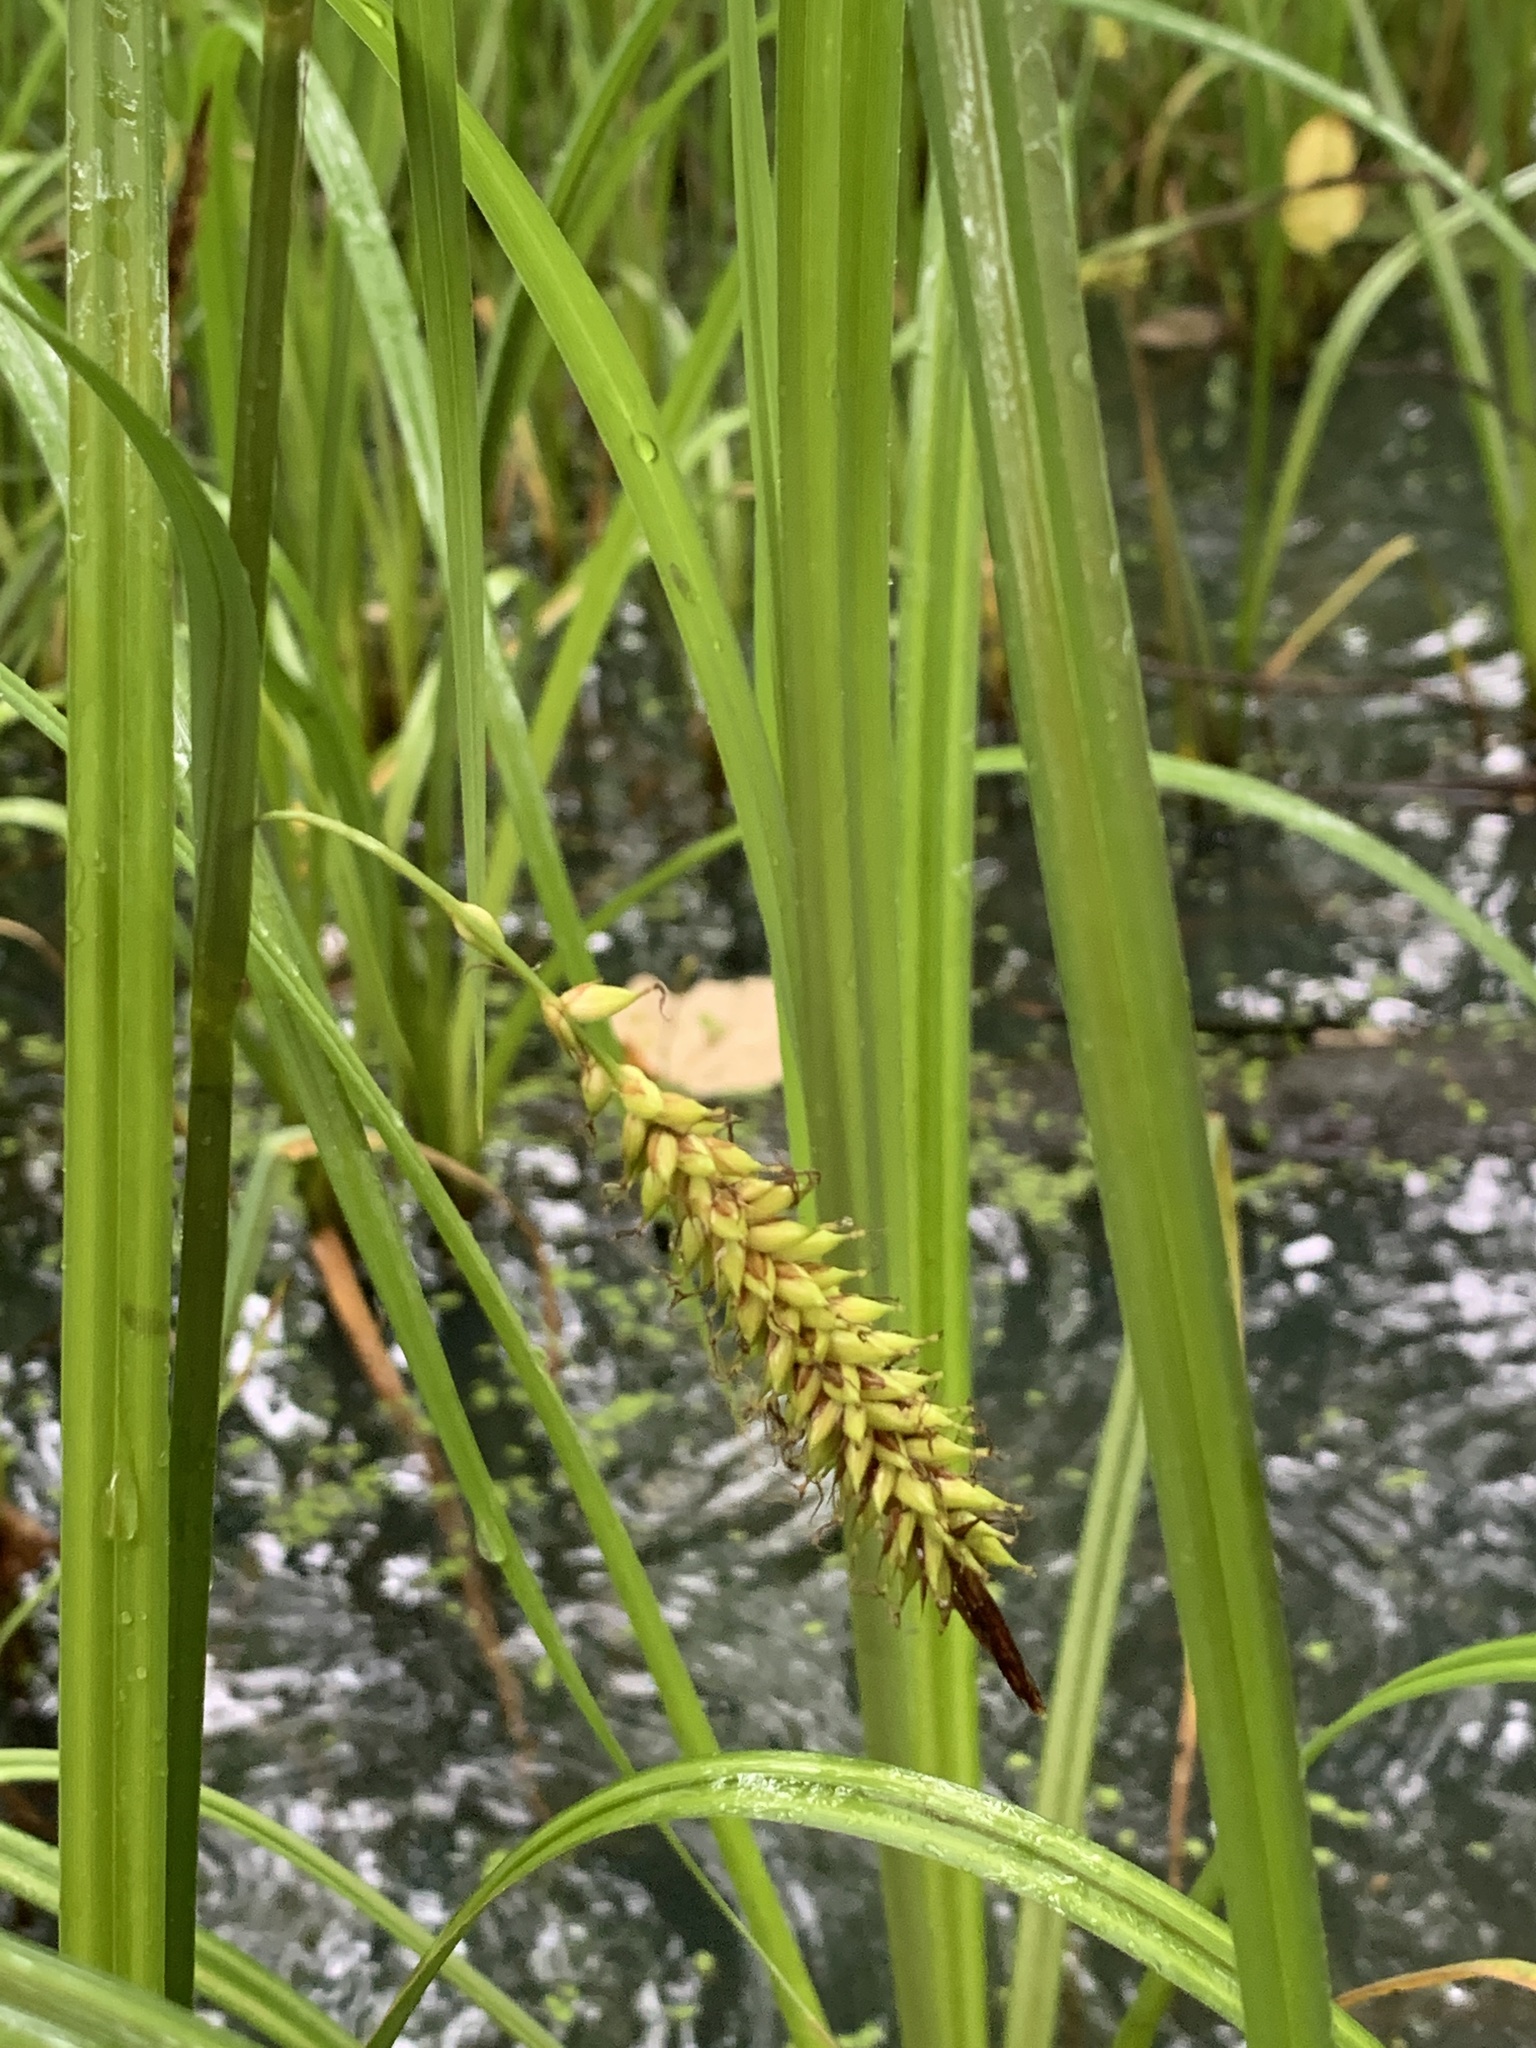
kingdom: Plantae
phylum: Tracheophyta
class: Liliopsida
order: Poales
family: Cyperaceae
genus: Carex
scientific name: Carex hyalinolepis
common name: Shoreline sedge
